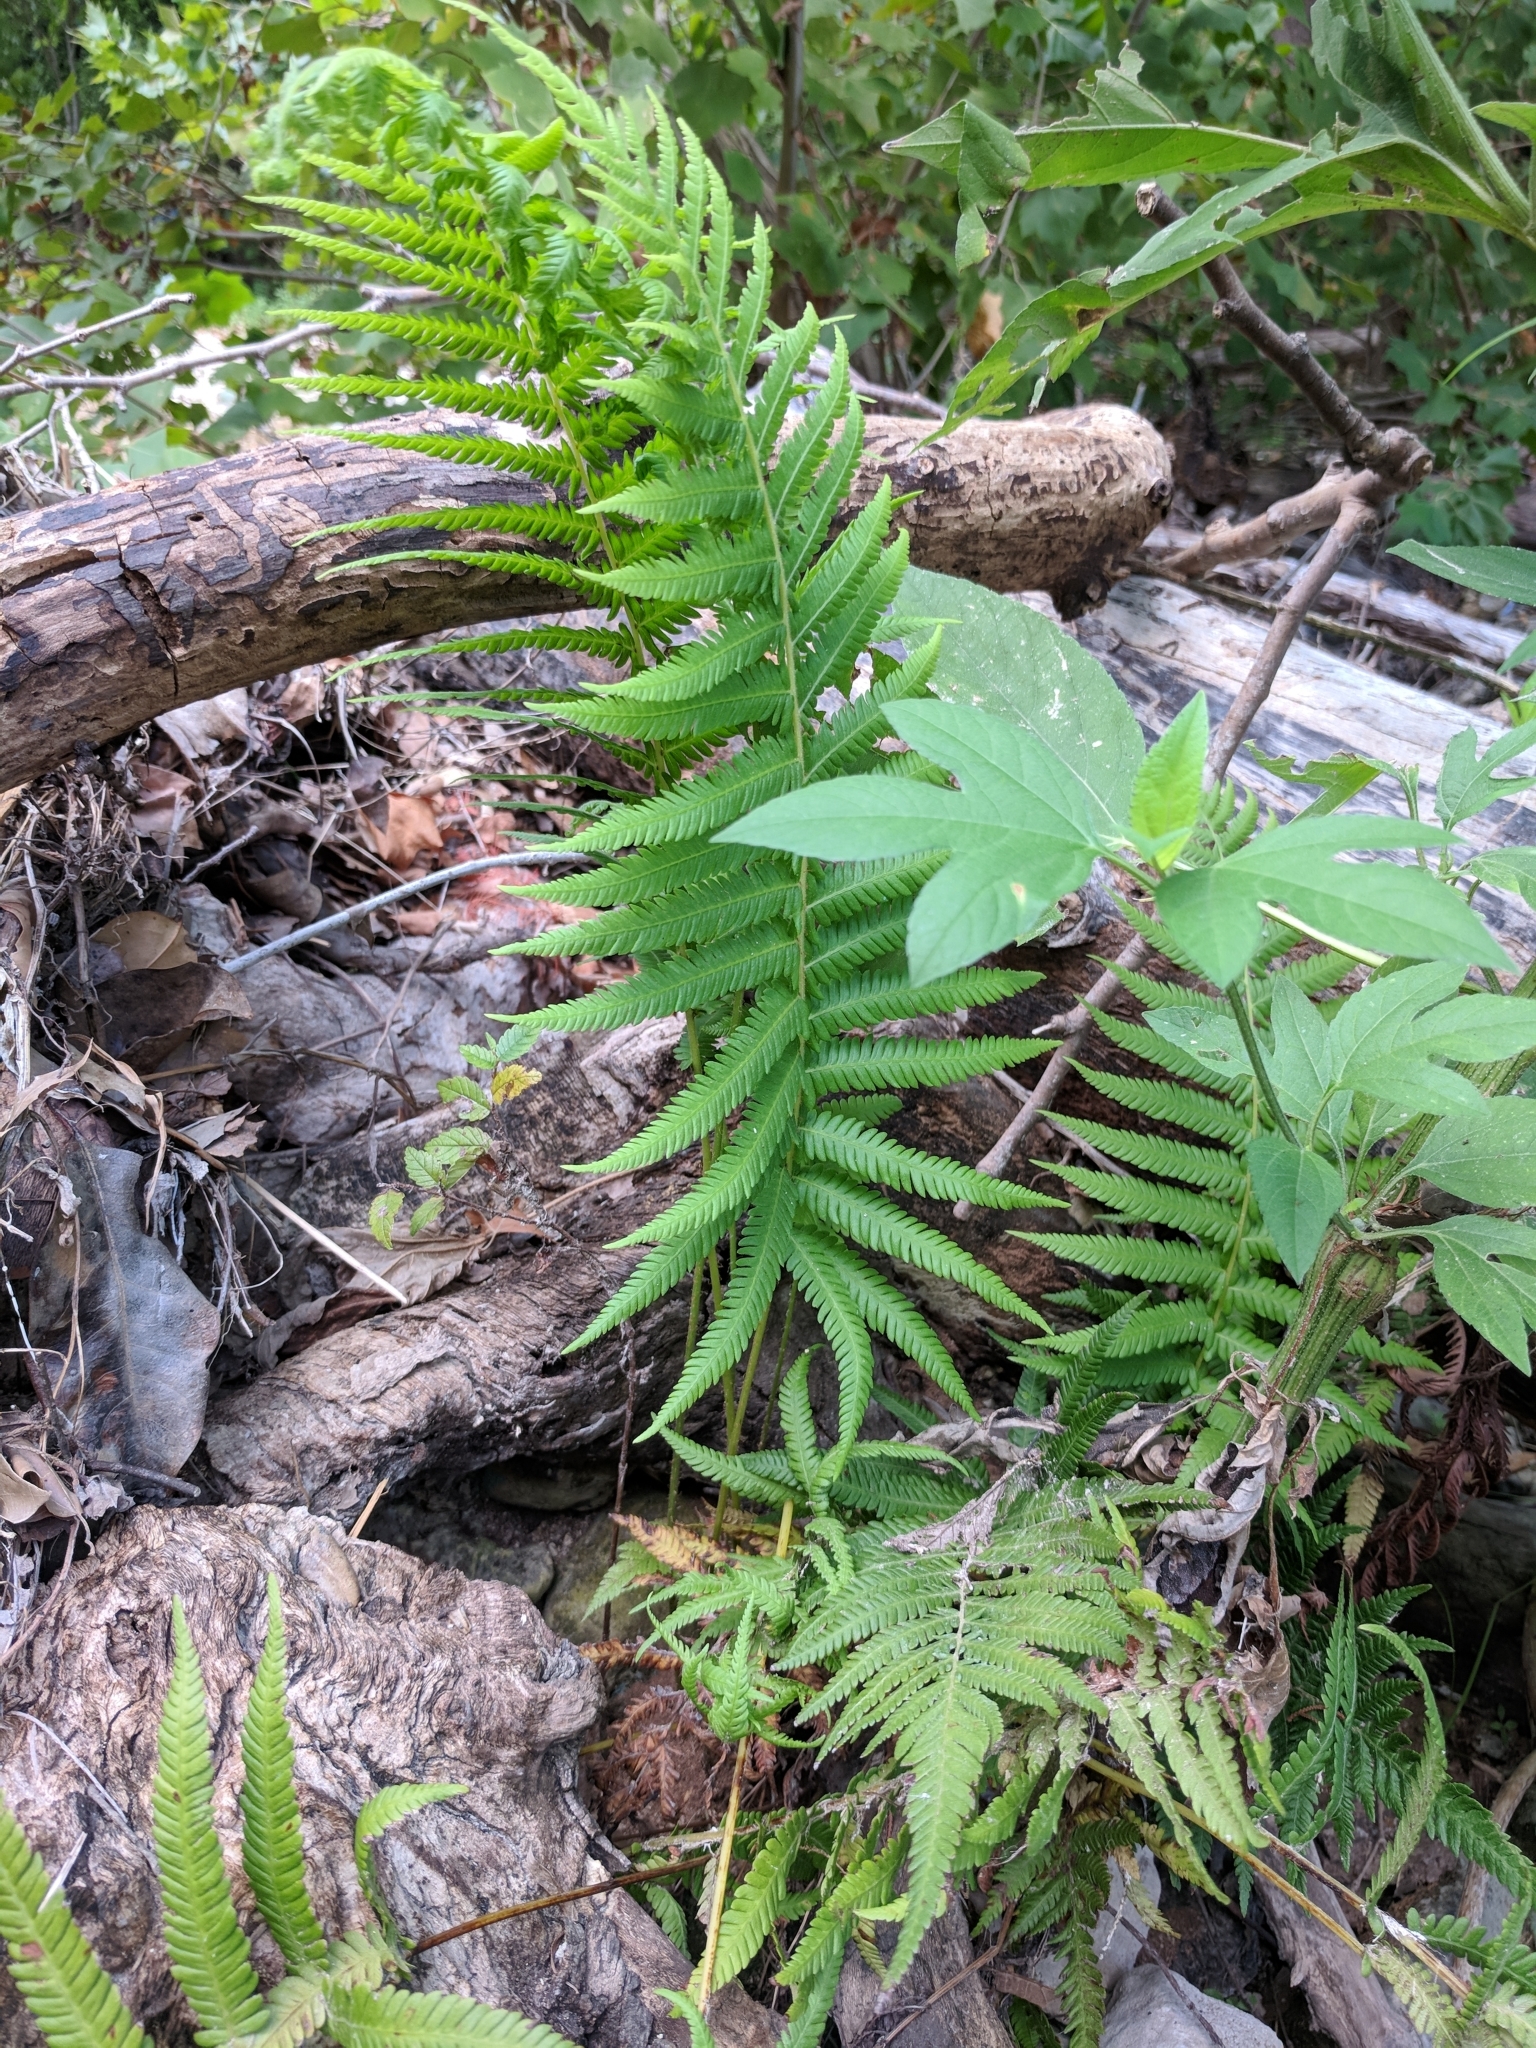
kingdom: Plantae
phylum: Tracheophyta
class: Polypodiopsida
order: Polypodiales
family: Thelypteridaceae
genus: Pelazoneuron
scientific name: Pelazoneuron ovatum
